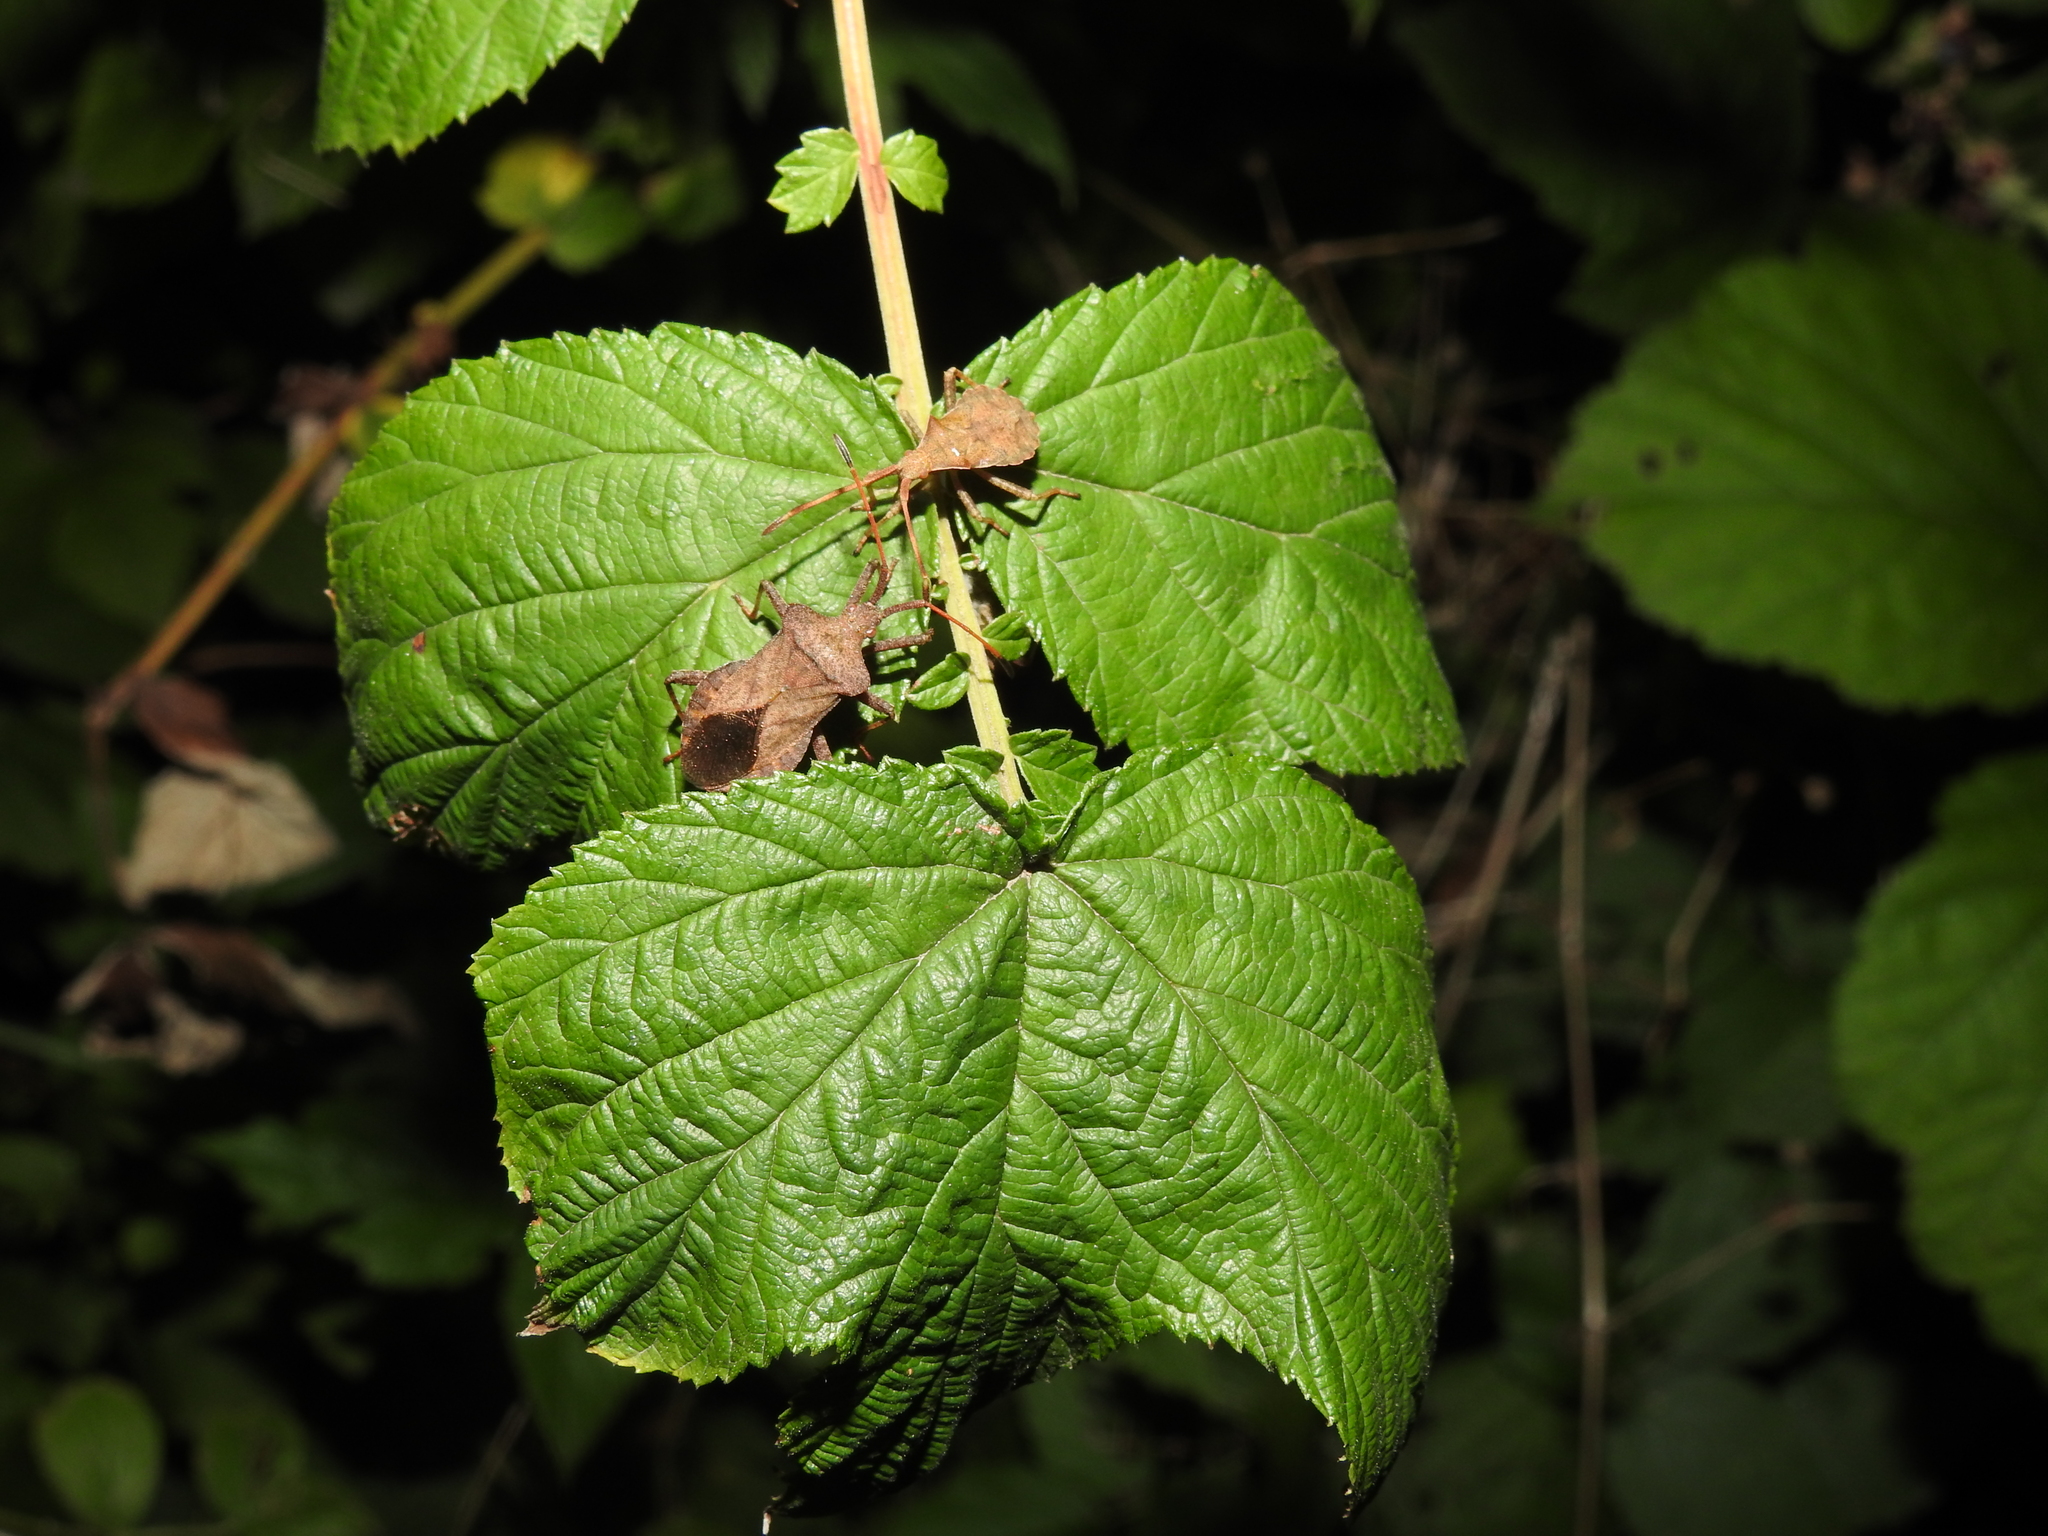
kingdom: Animalia
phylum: Arthropoda
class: Insecta
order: Hemiptera
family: Coreidae
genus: Coreus
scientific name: Coreus marginatus
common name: Dock bug
